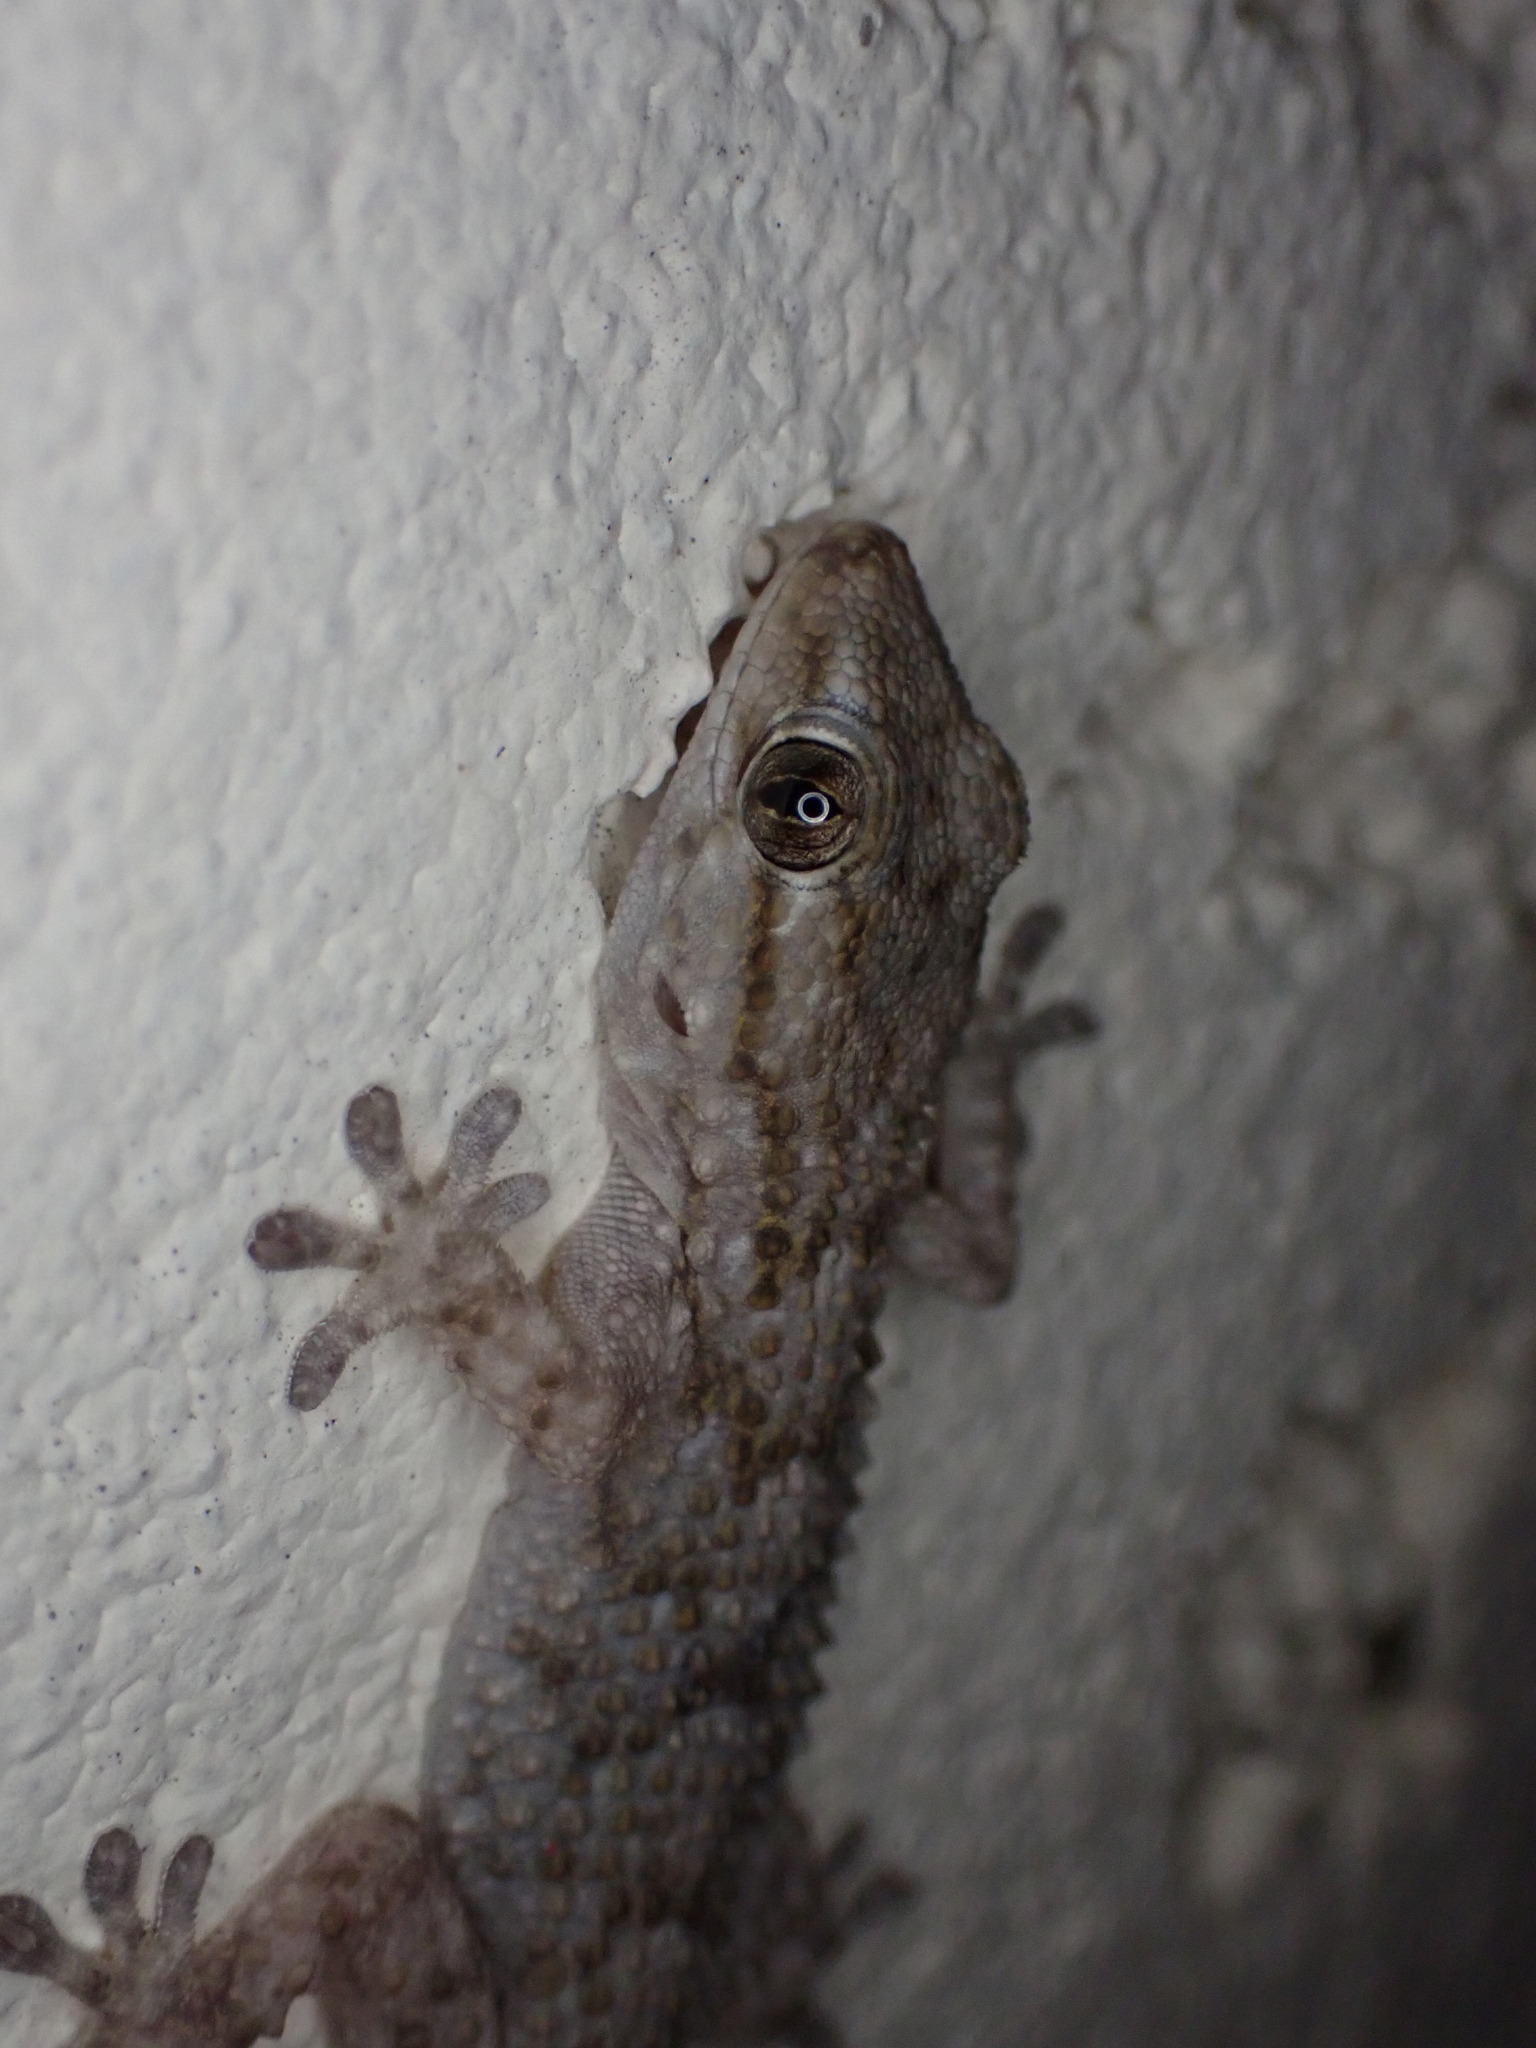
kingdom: Animalia
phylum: Chordata
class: Squamata
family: Phyllodactylidae
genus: Tarentola
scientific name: Tarentola mauritanica
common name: Moorish gecko
